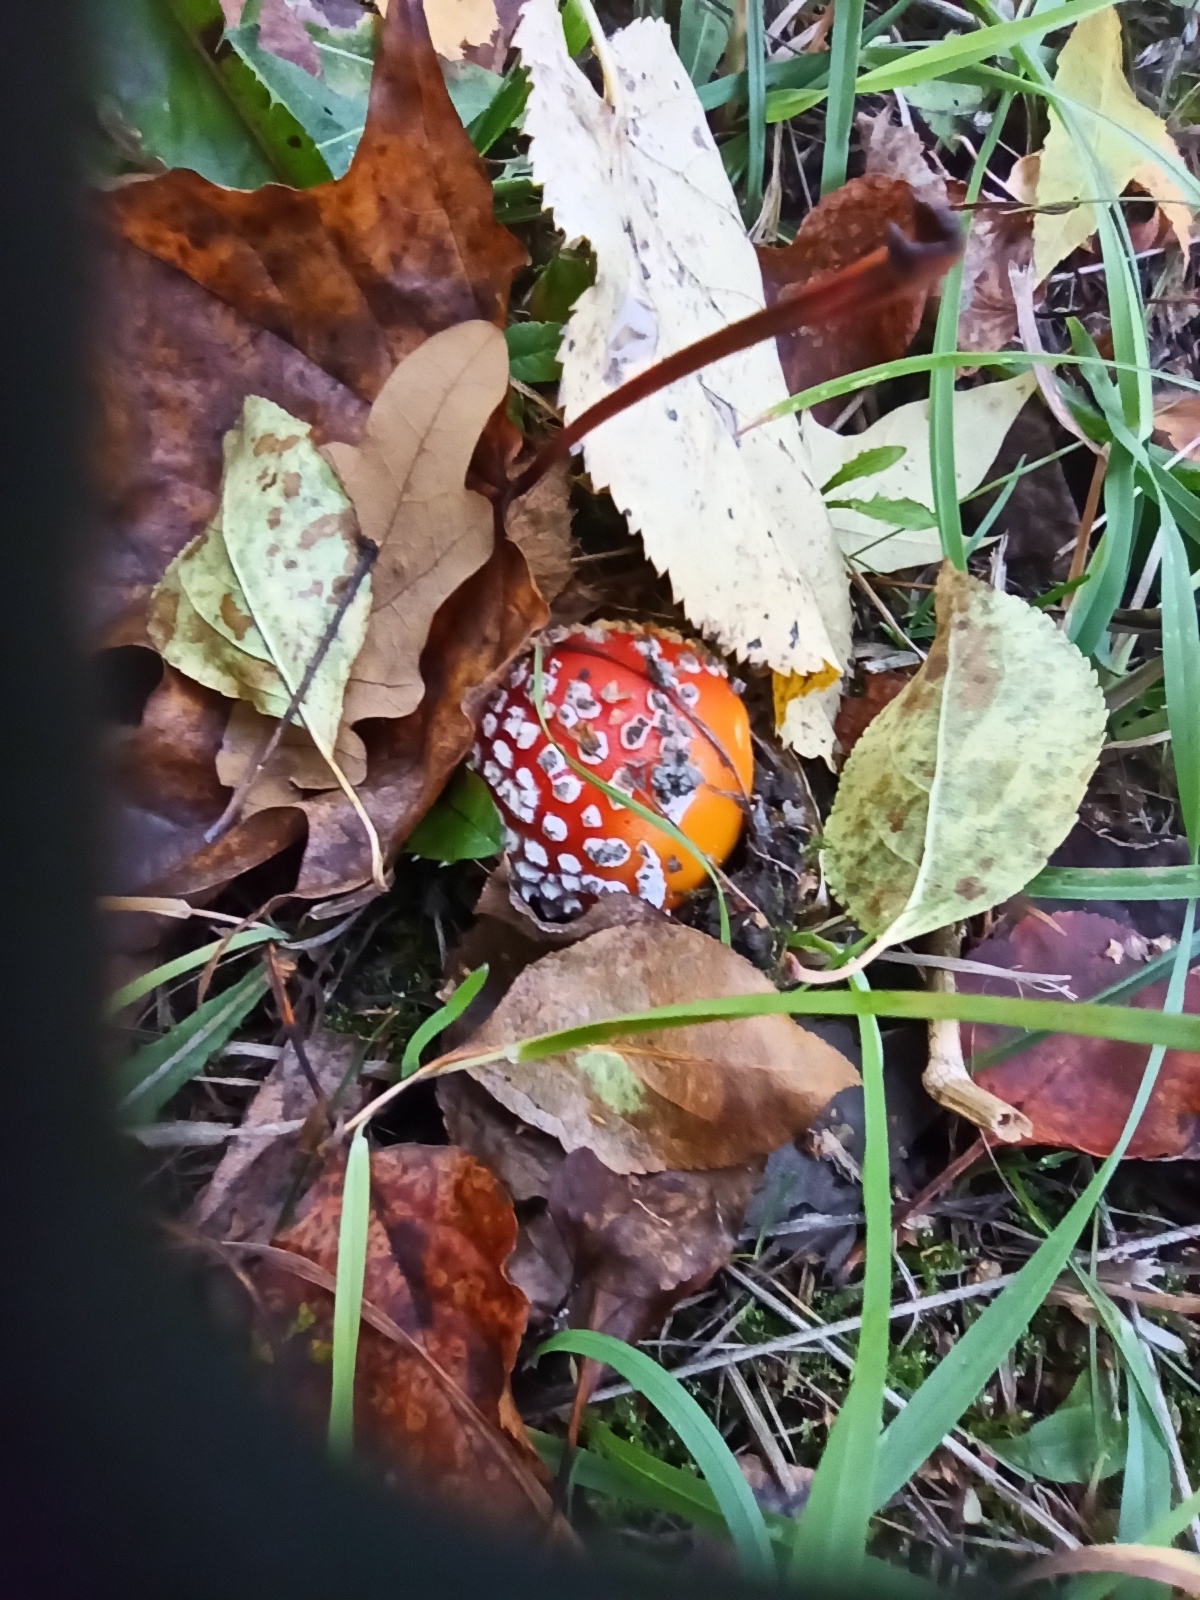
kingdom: Fungi
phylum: Basidiomycota
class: Agaricomycetes
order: Agaricales
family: Amanitaceae
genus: Amanita
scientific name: Amanita muscaria
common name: Fly agaric
